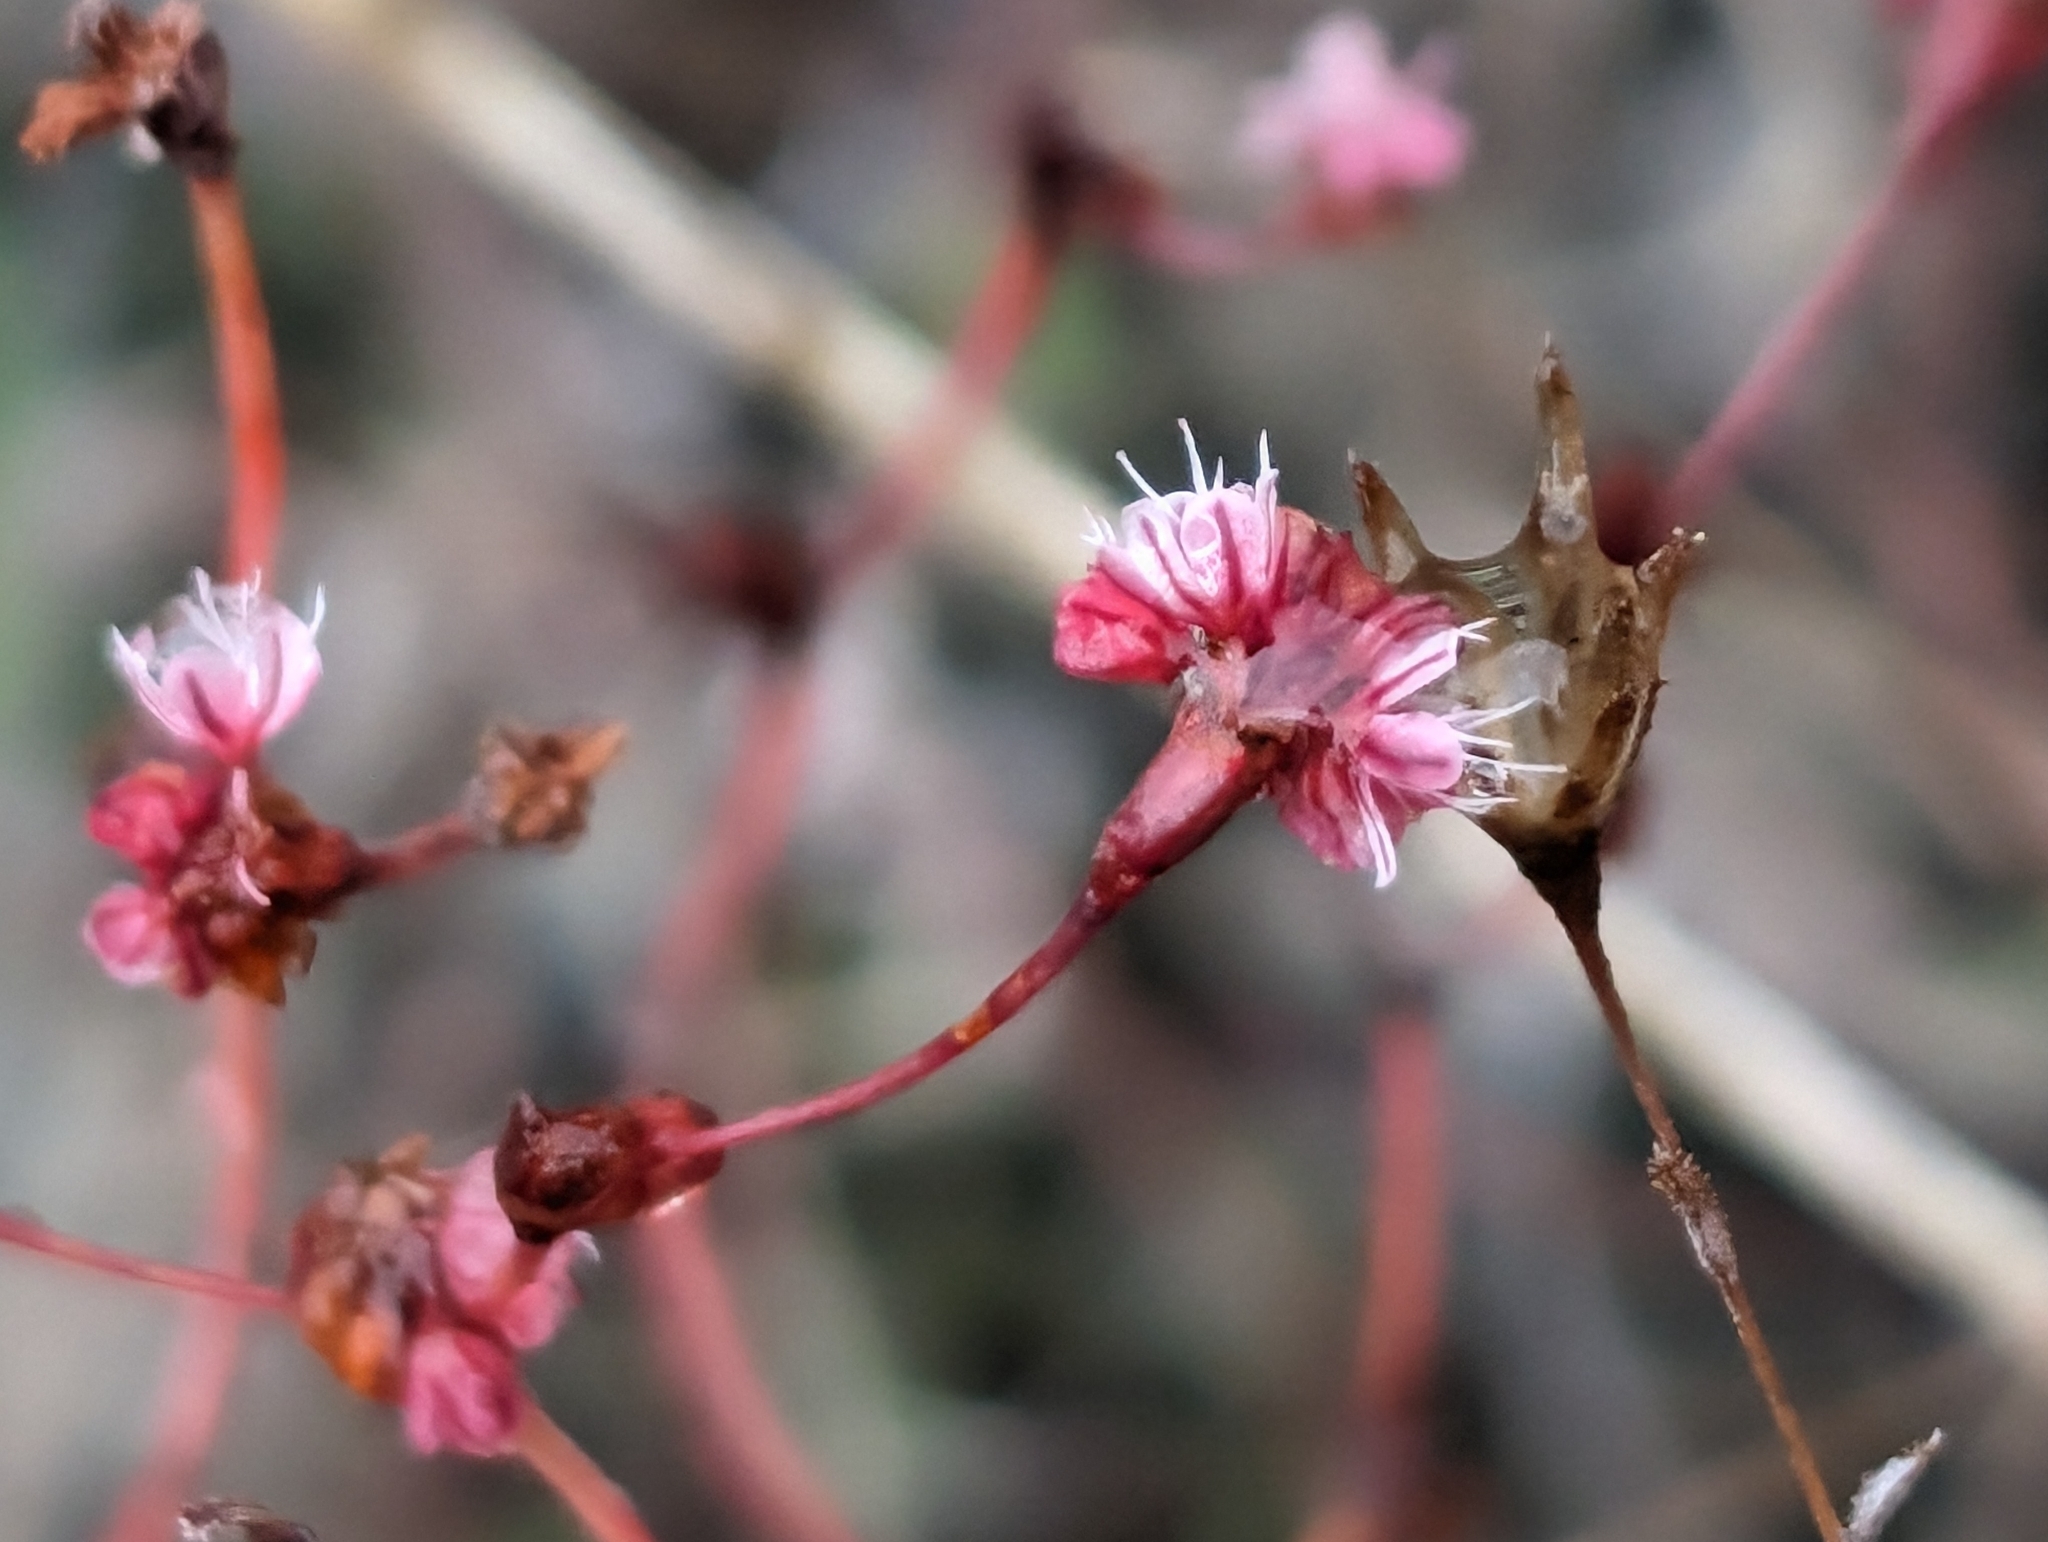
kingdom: Plantae
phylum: Tracheophyta
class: Magnoliopsida
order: Caryophyllales
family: Polygonaceae
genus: Eriogonum
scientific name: Eriogonum luteolum
